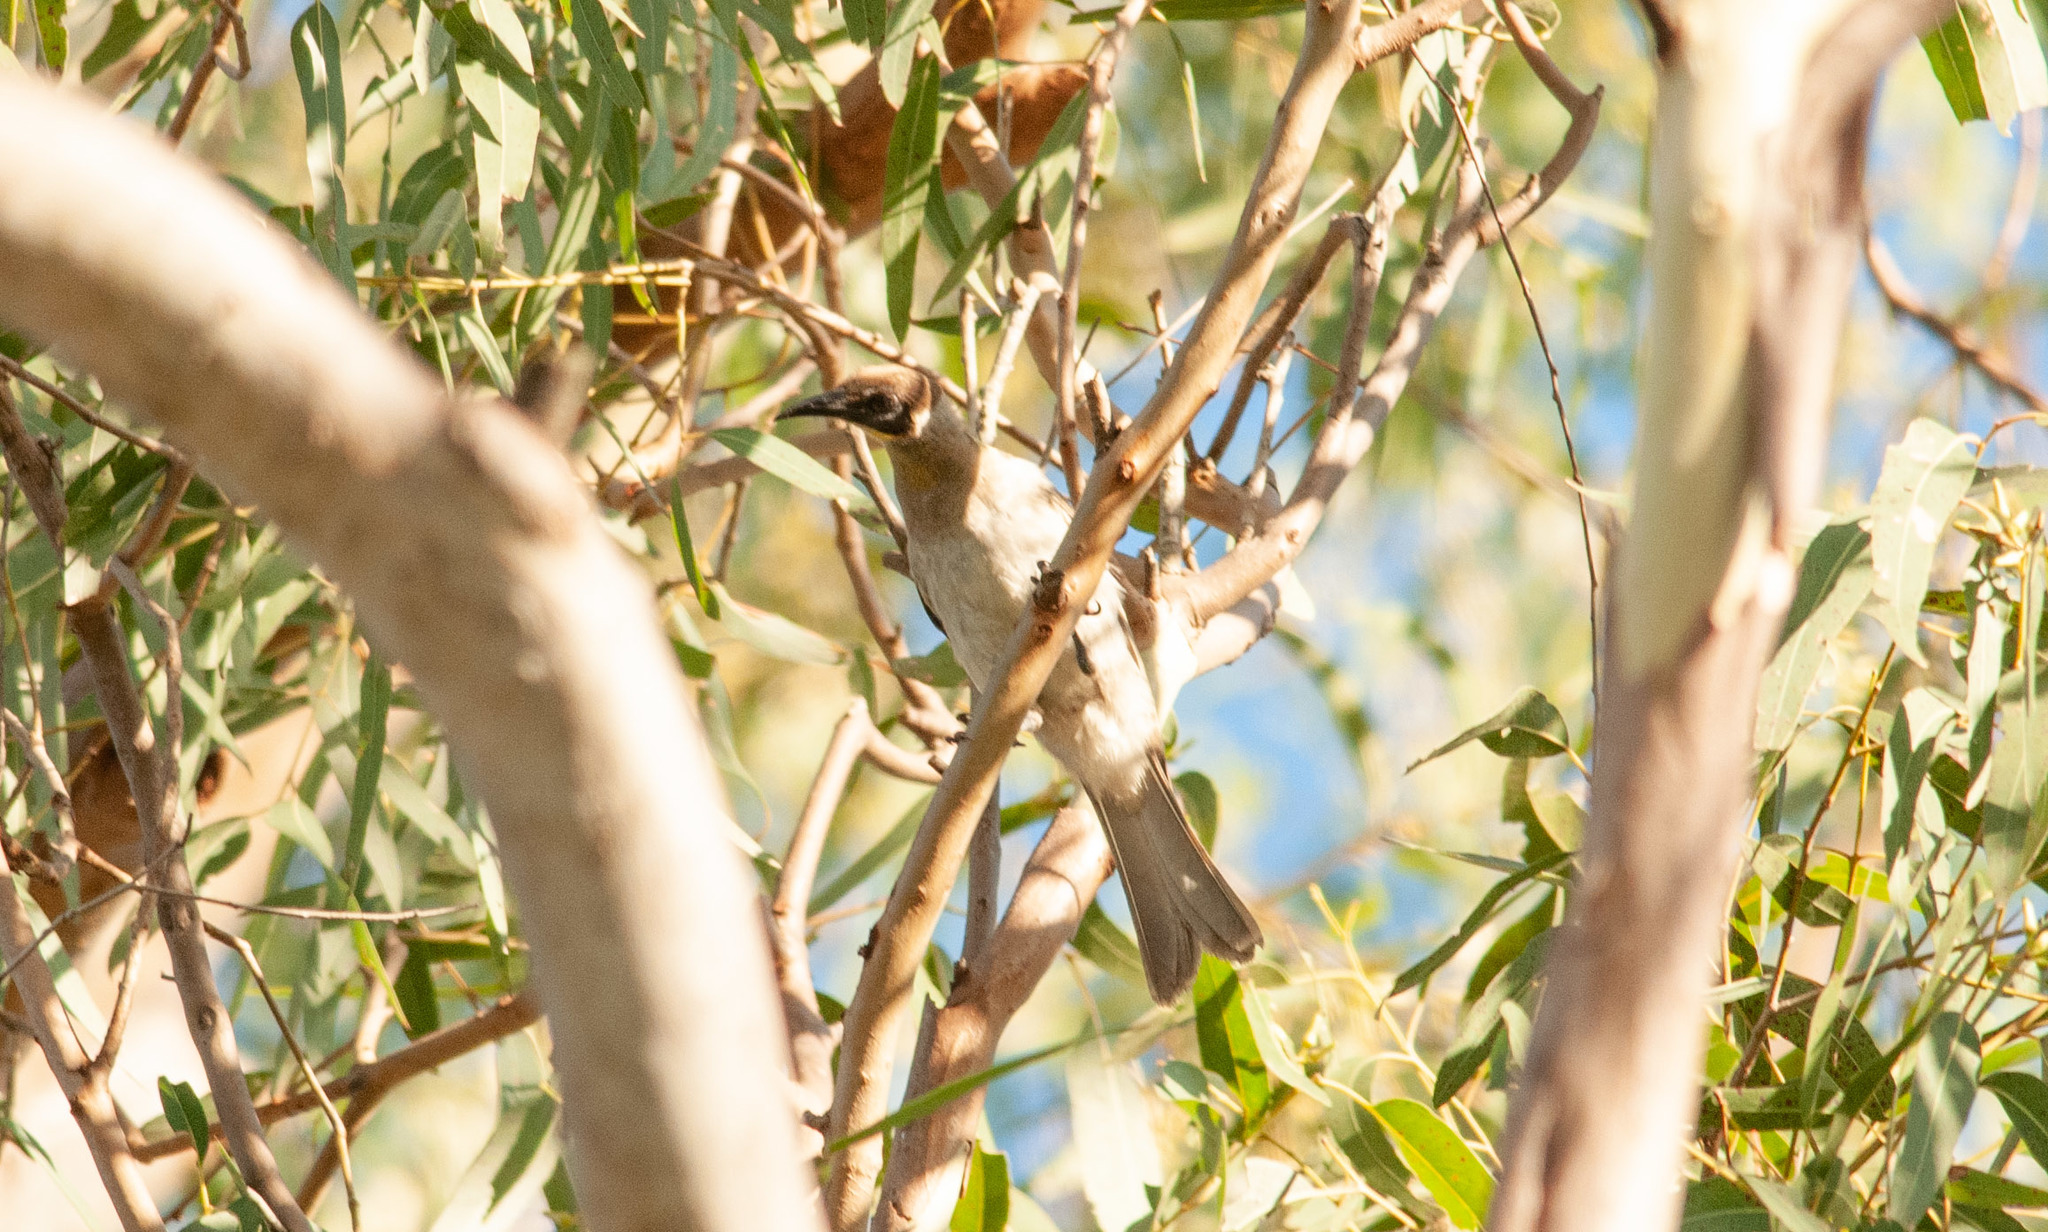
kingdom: Animalia
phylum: Chordata
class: Aves
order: Passeriformes
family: Meliphagidae
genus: Philemon
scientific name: Philemon citreogularis
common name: Little friarbird
